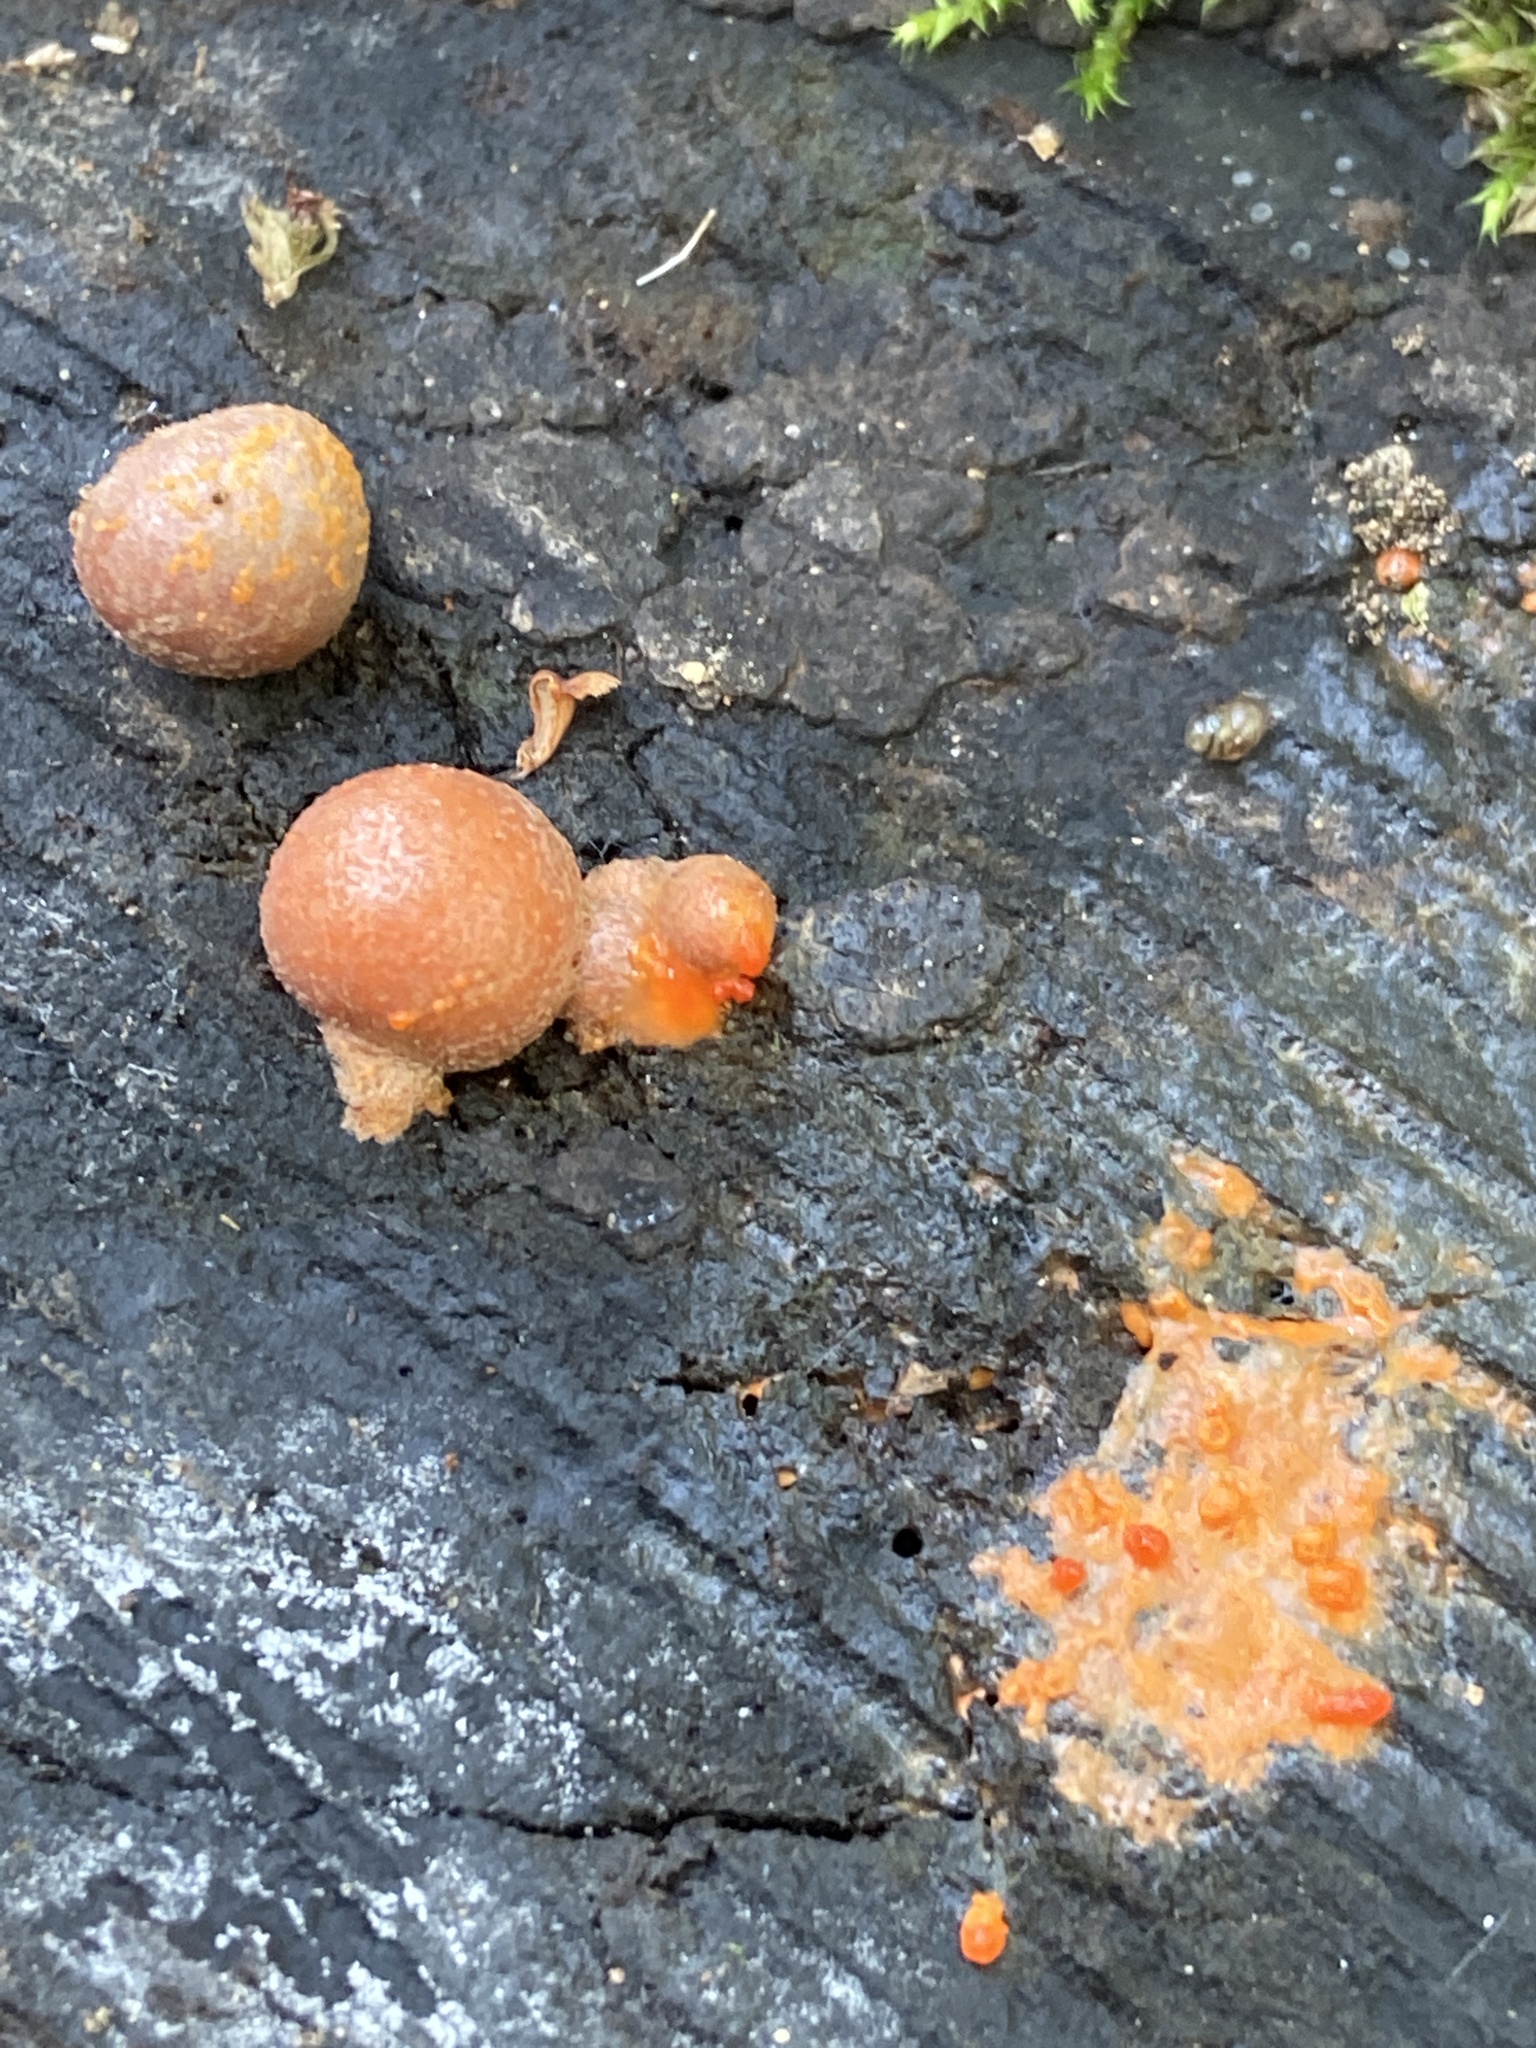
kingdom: Protozoa
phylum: Mycetozoa
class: Myxomycetes
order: Cribrariales
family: Tubiferaceae
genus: Lycogala
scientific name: Lycogala epidendrum
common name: Wolf's milk
